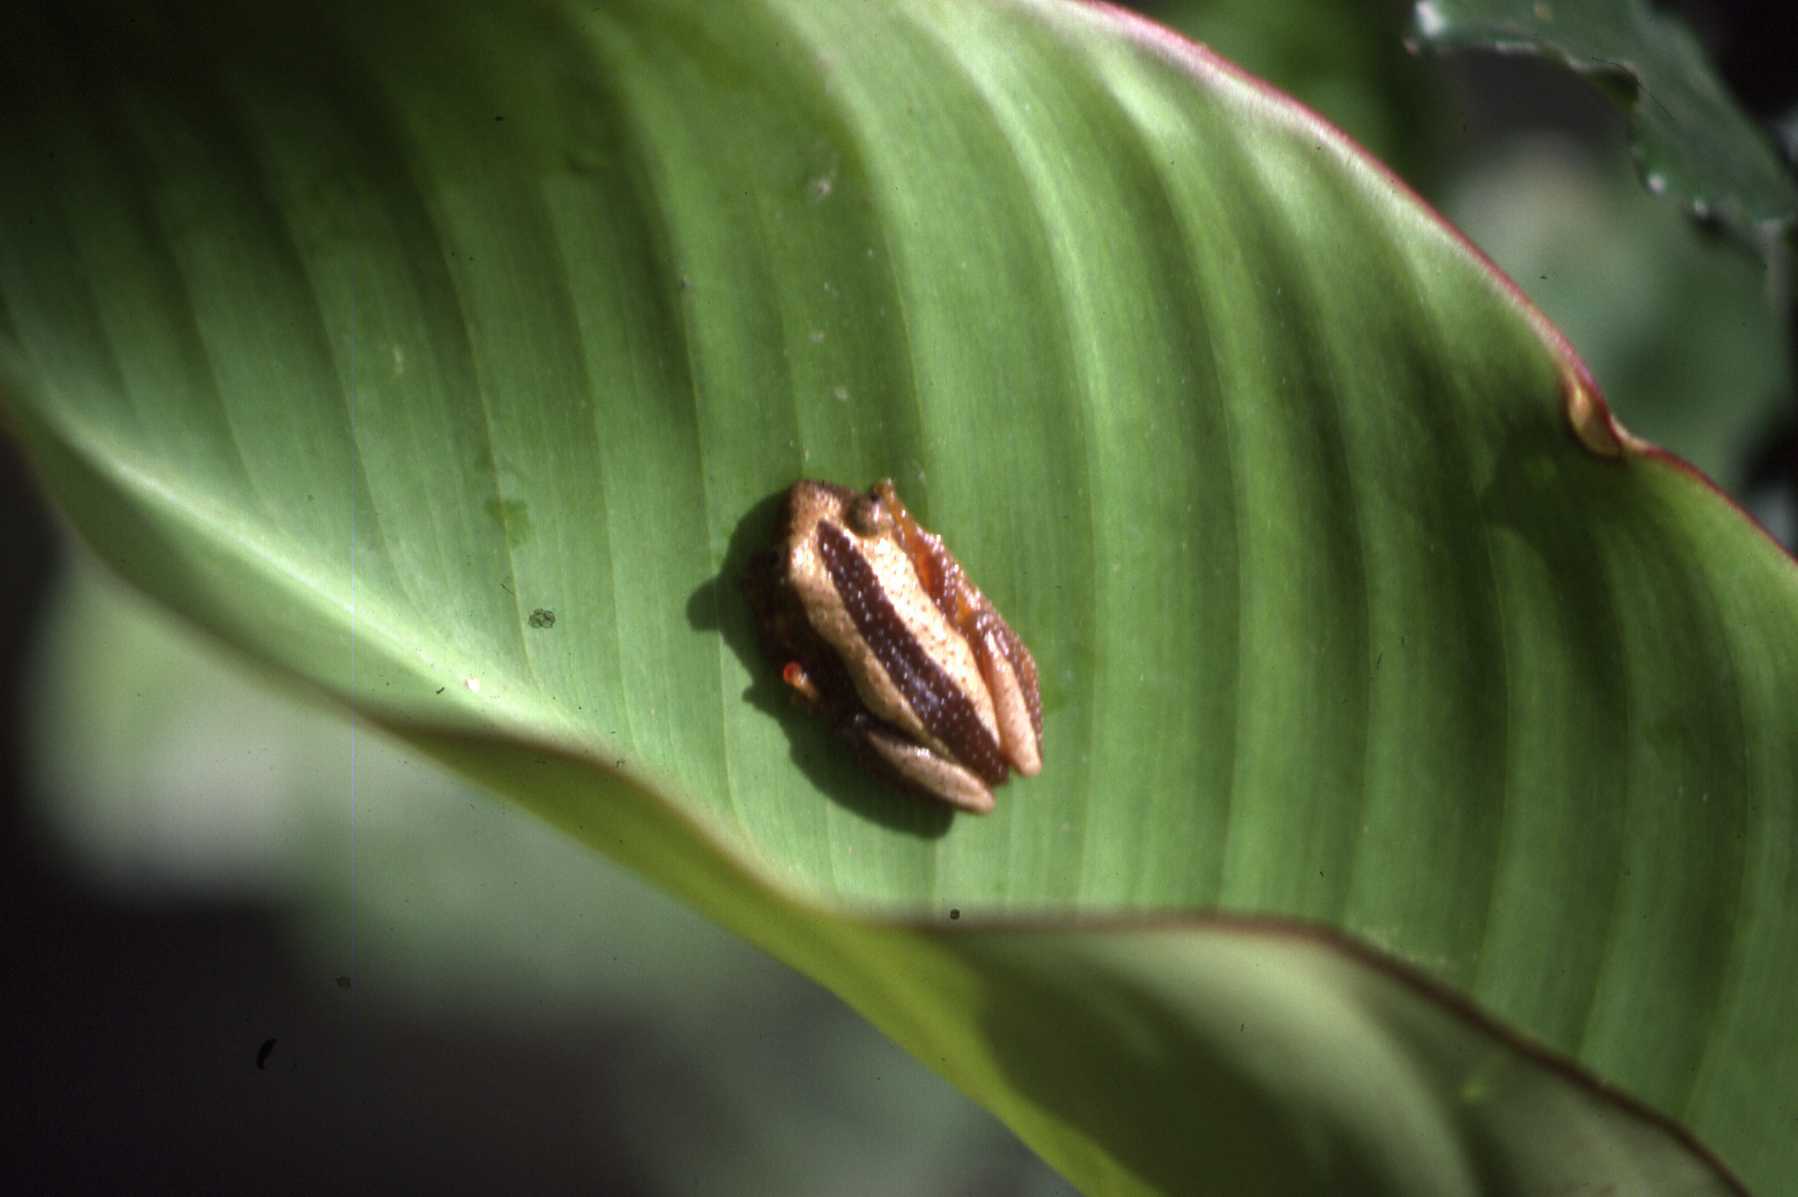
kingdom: Animalia
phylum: Chordata
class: Amphibia
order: Anura
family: Hyperoliidae
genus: Afrixalus
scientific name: Afrixalus fornasini
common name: Fornasini's spiny reed frog
